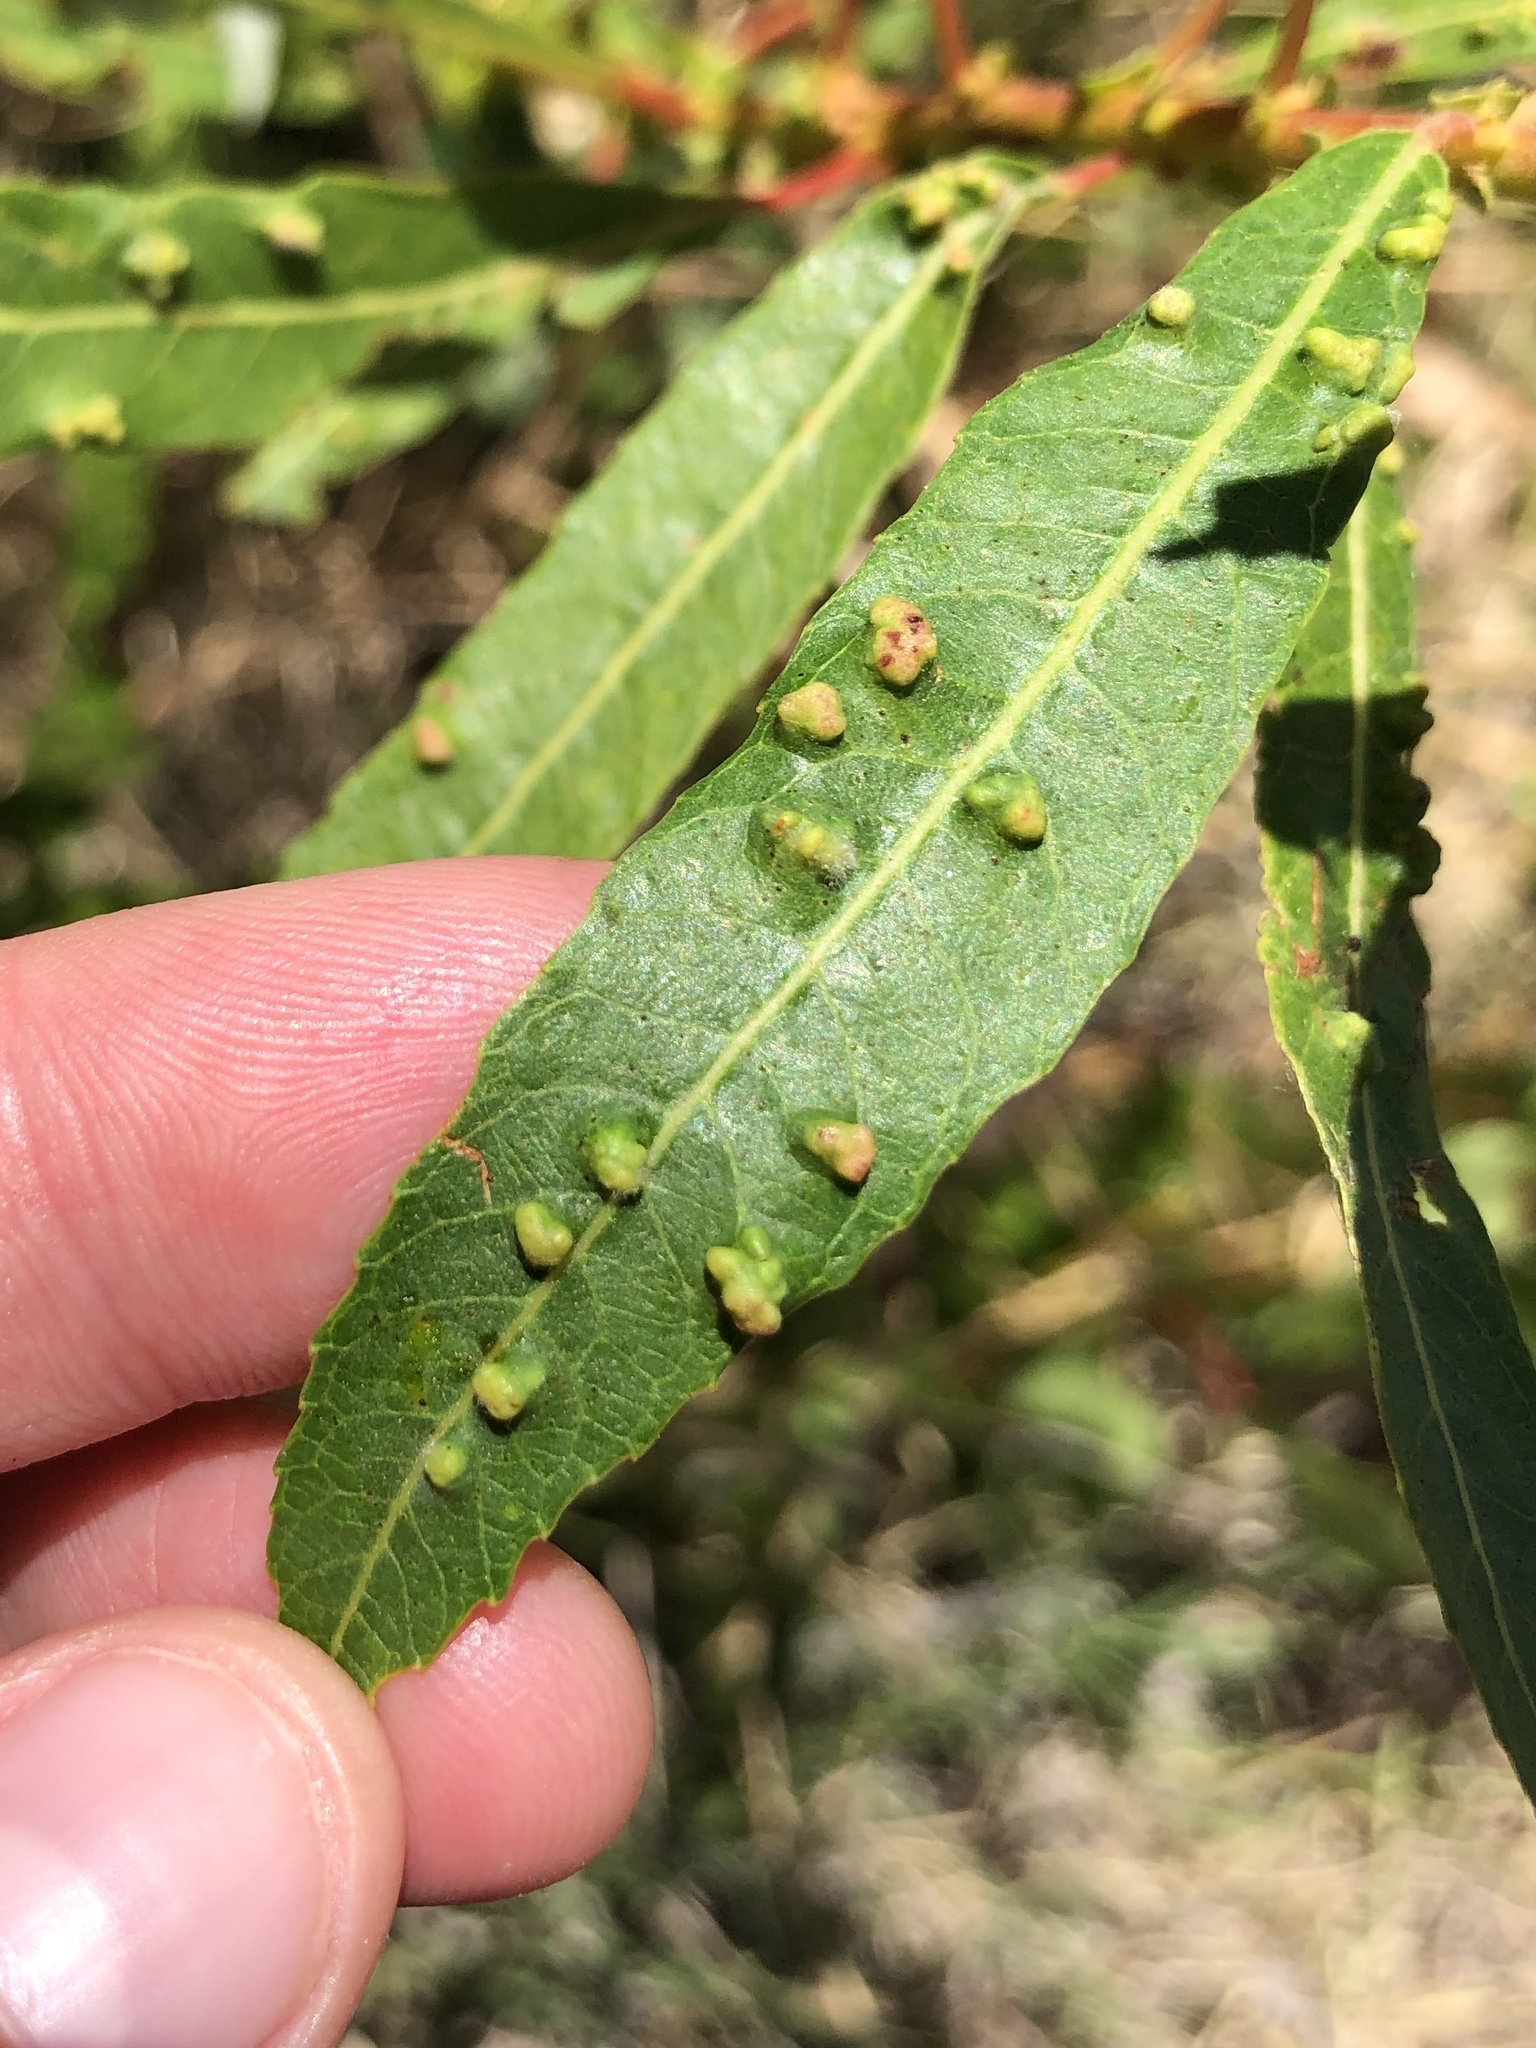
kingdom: Animalia
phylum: Arthropoda
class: Arachnida
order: Trombidiformes
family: Eriophyidae
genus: Aculus
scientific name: Aculus tetanothrix
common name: Willow bead gall mite
